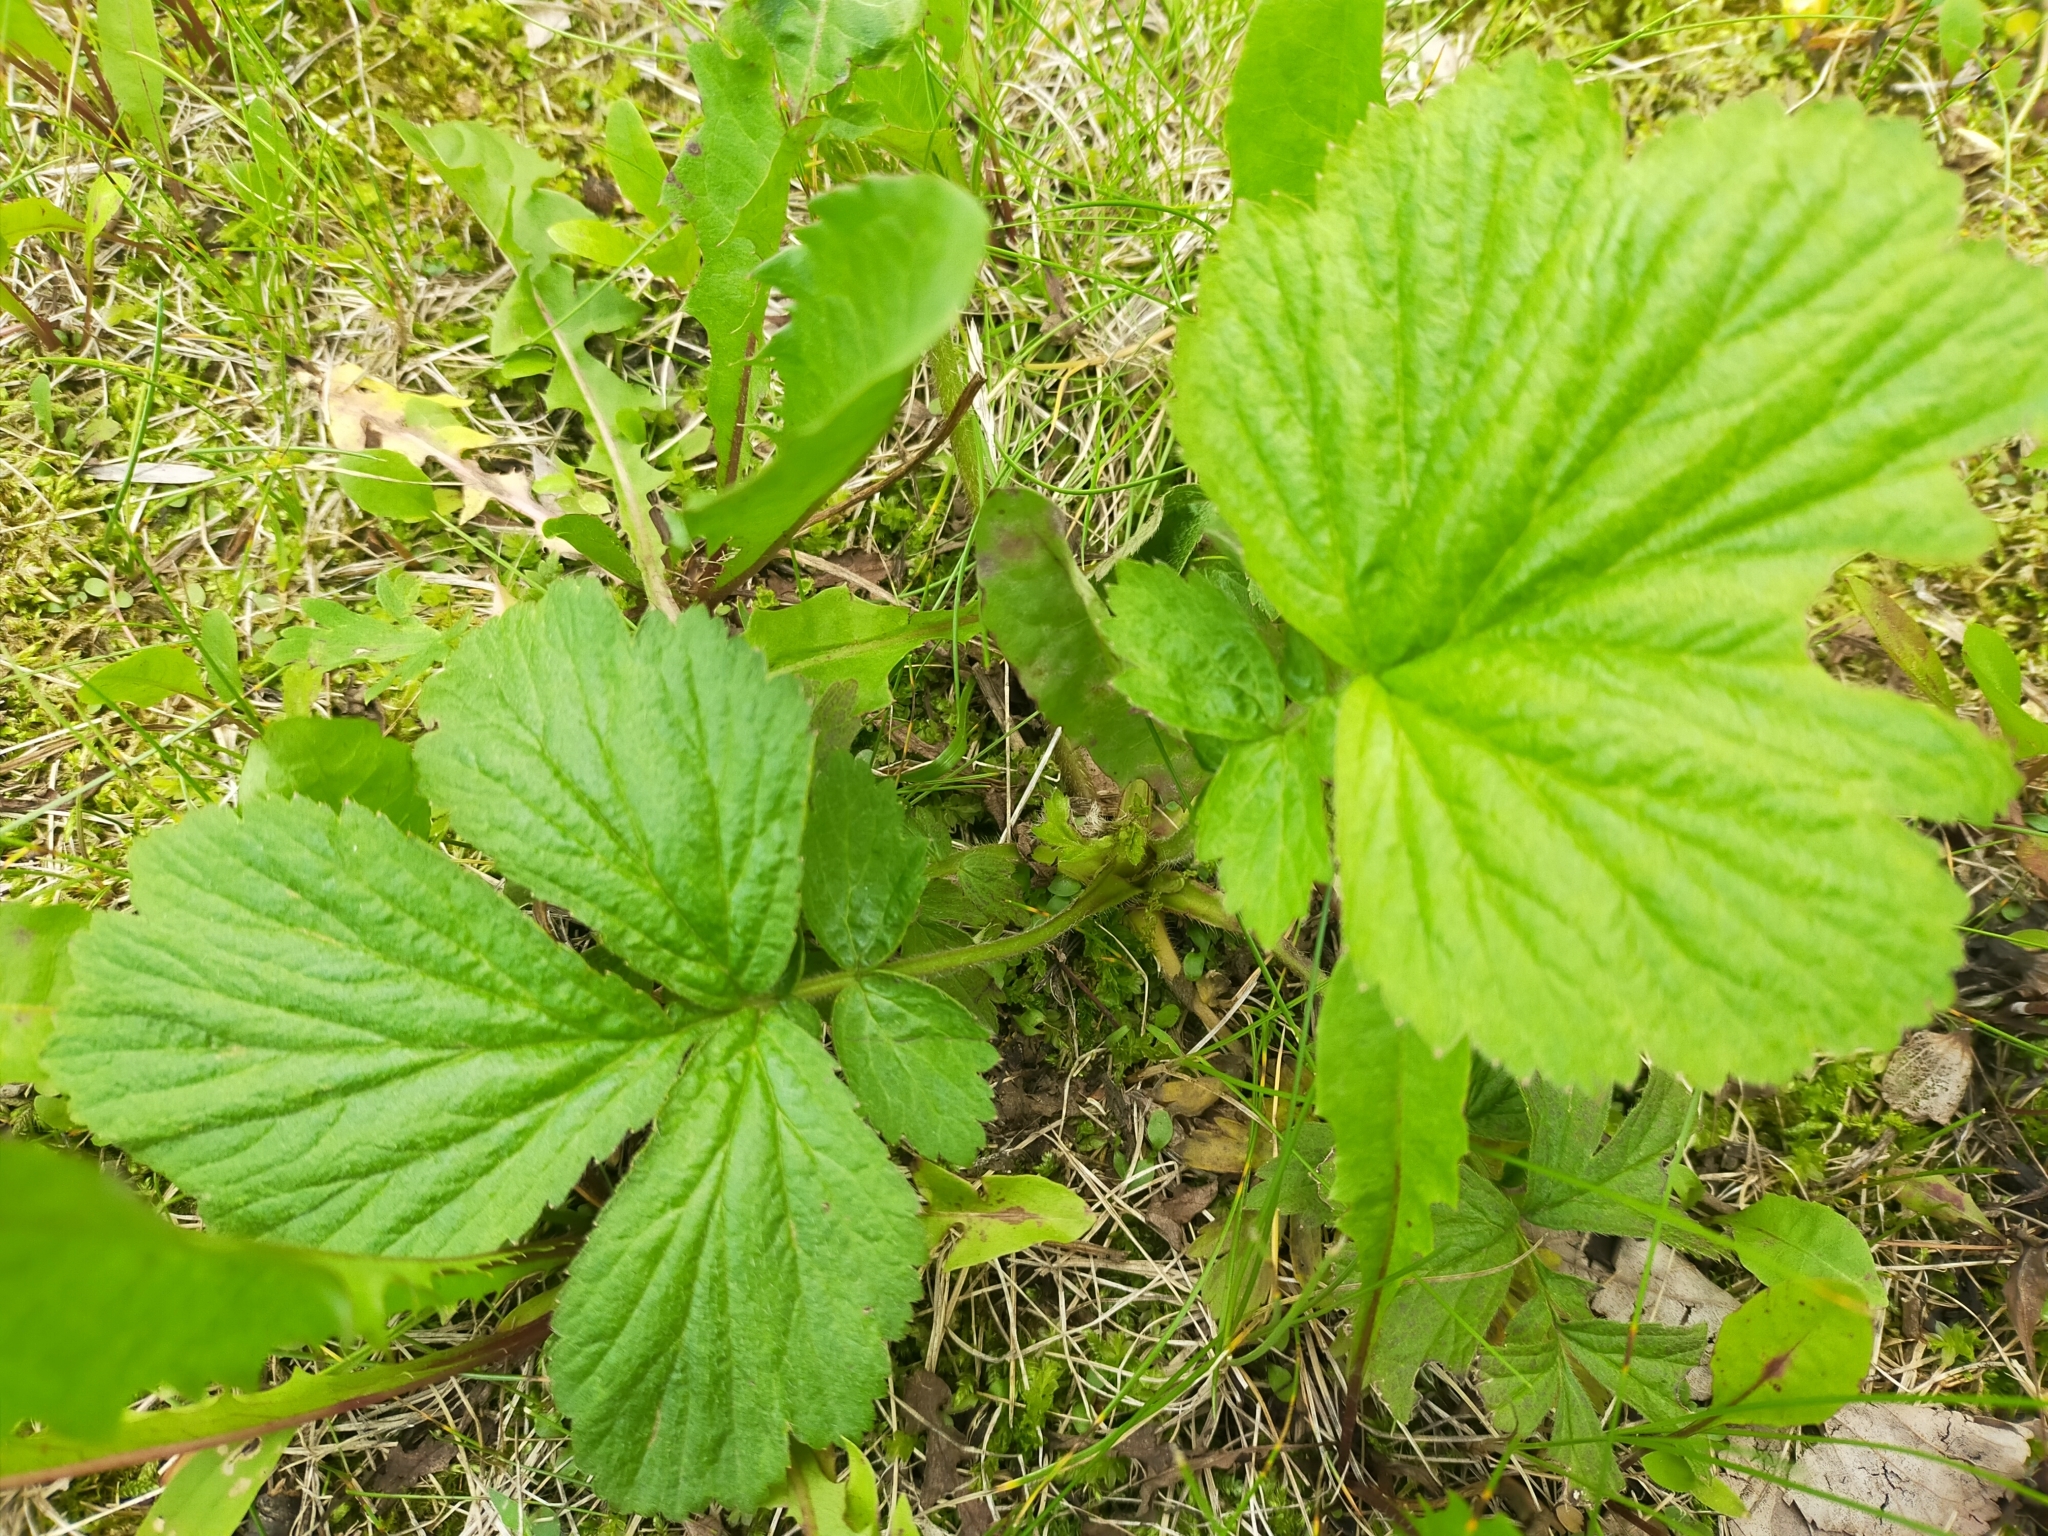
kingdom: Plantae
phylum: Tracheophyta
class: Magnoliopsida
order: Rosales
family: Rosaceae
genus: Geum
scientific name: Geum aleppicum
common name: Yellow avens
